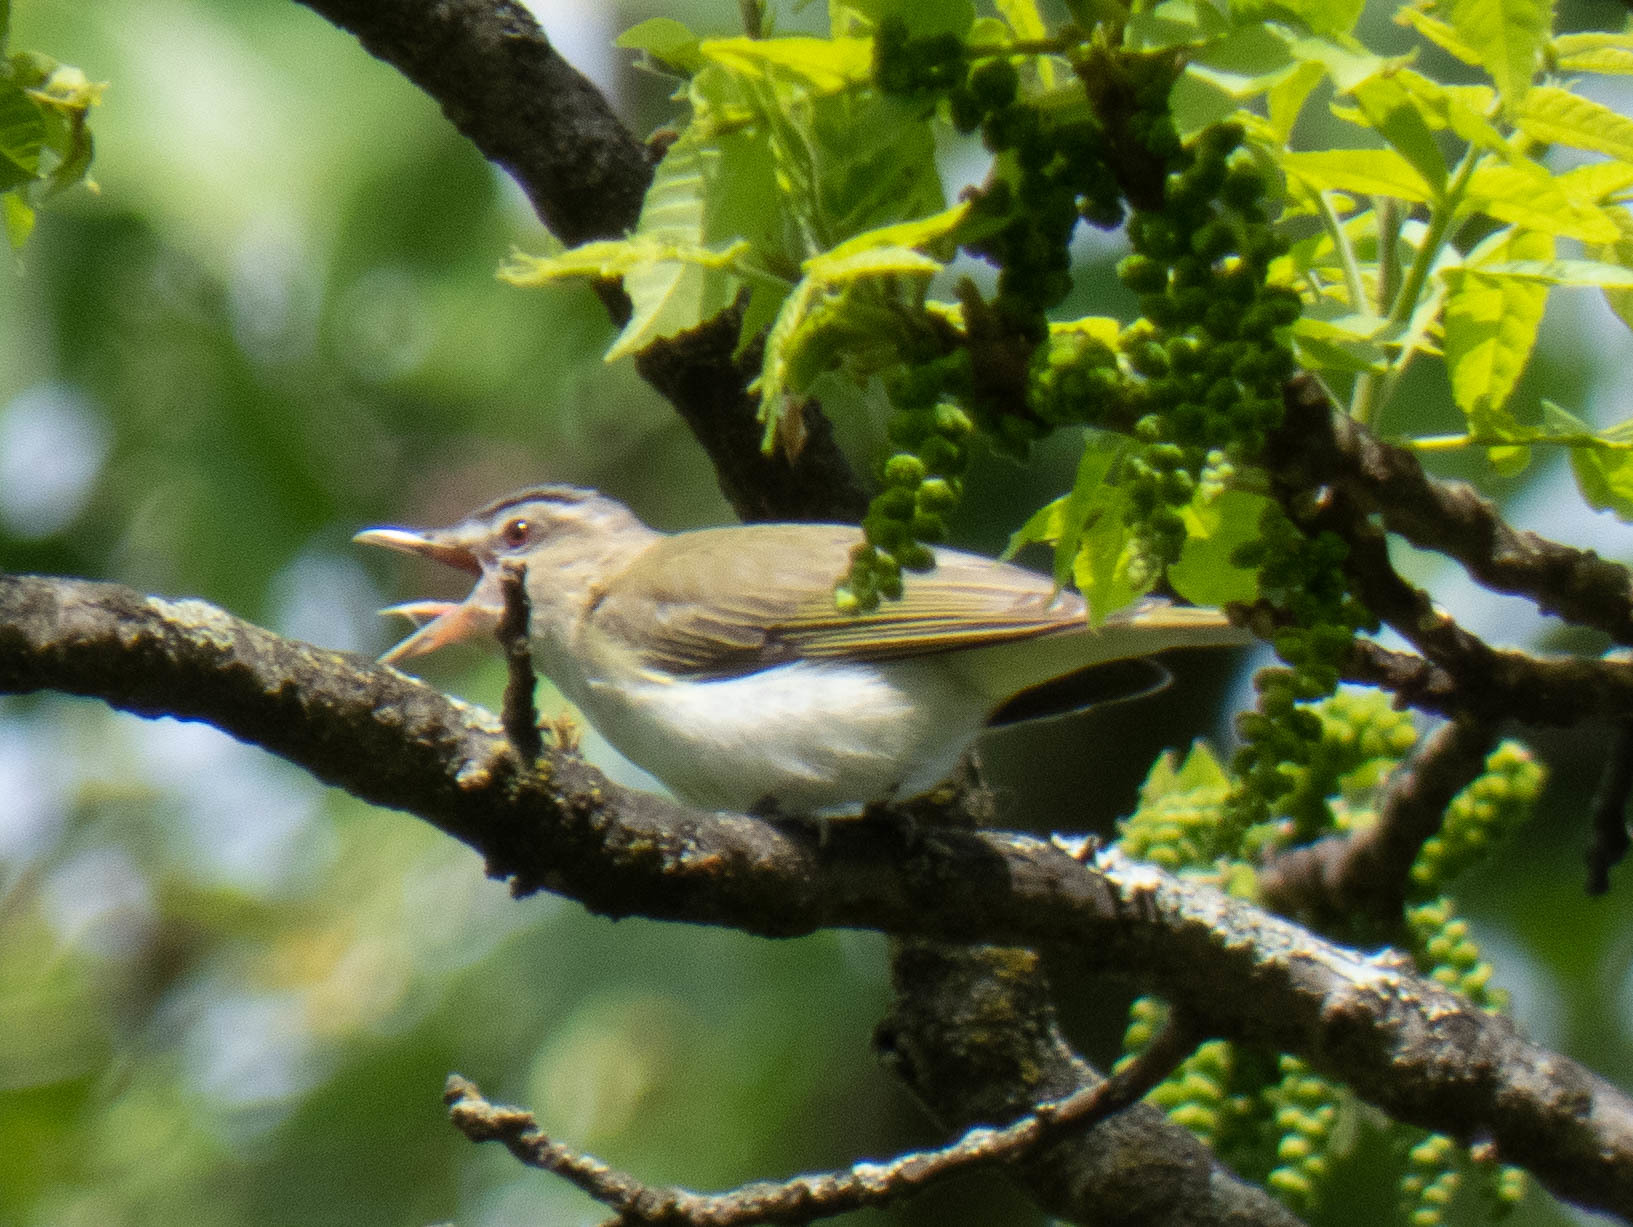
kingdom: Animalia
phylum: Chordata
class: Aves
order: Passeriformes
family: Vireonidae
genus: Vireo
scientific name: Vireo olivaceus
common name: Red-eyed vireo
